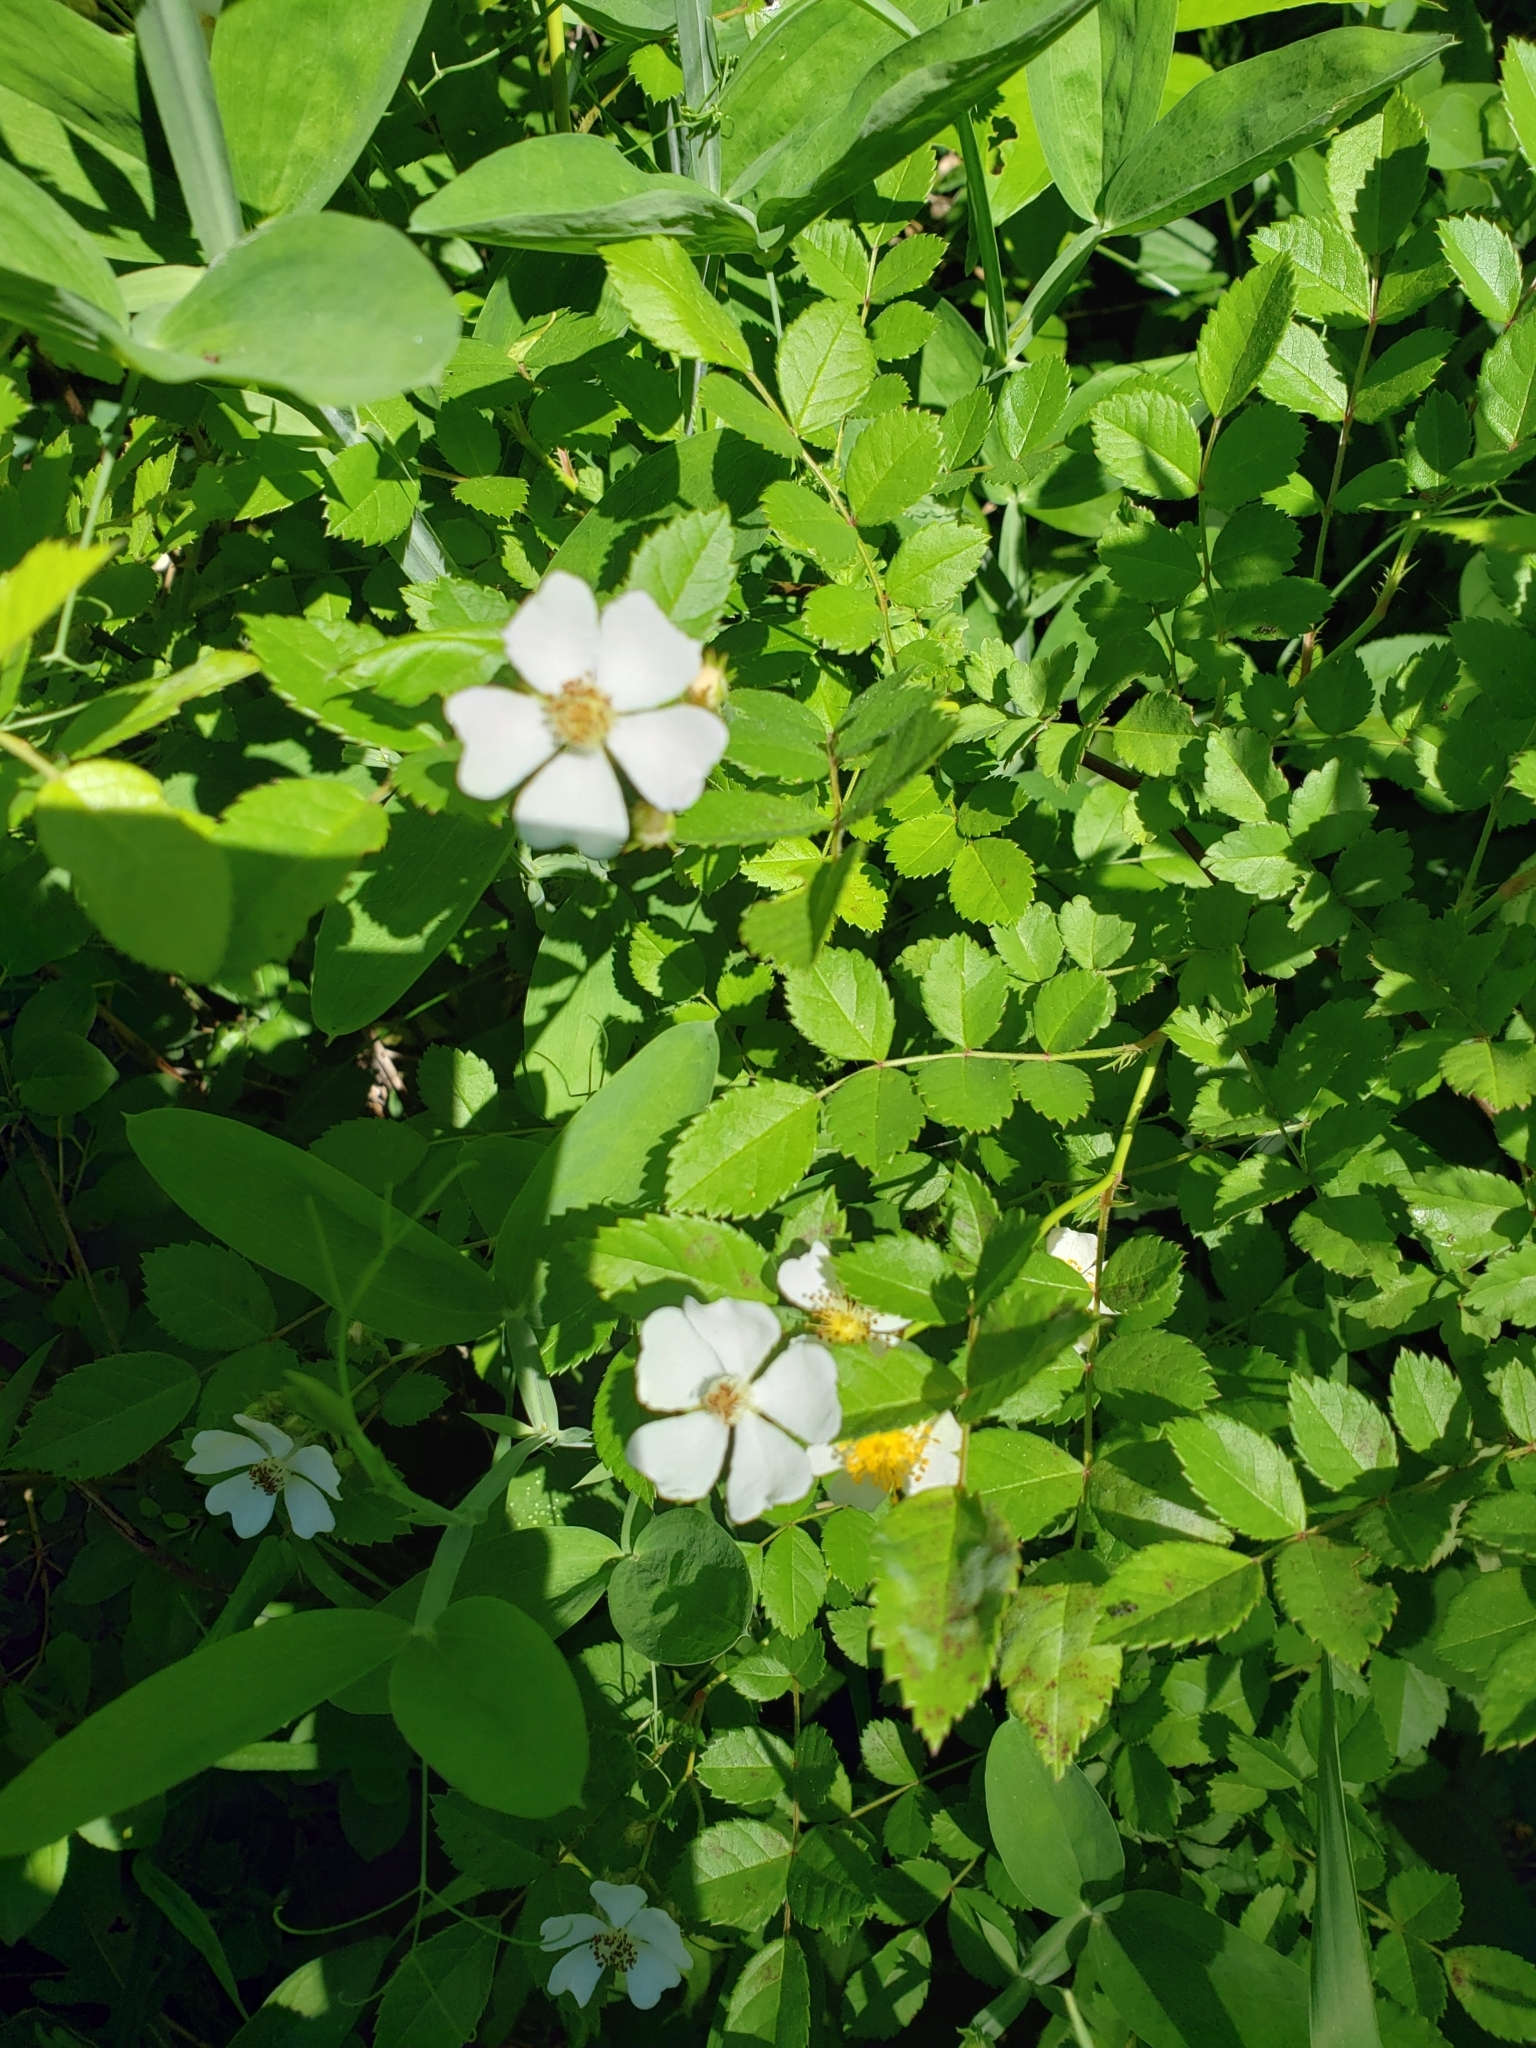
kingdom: Plantae
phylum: Tracheophyta
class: Magnoliopsida
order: Rosales
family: Rosaceae
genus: Rosa
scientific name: Rosa multiflora
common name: Multiflora rose
